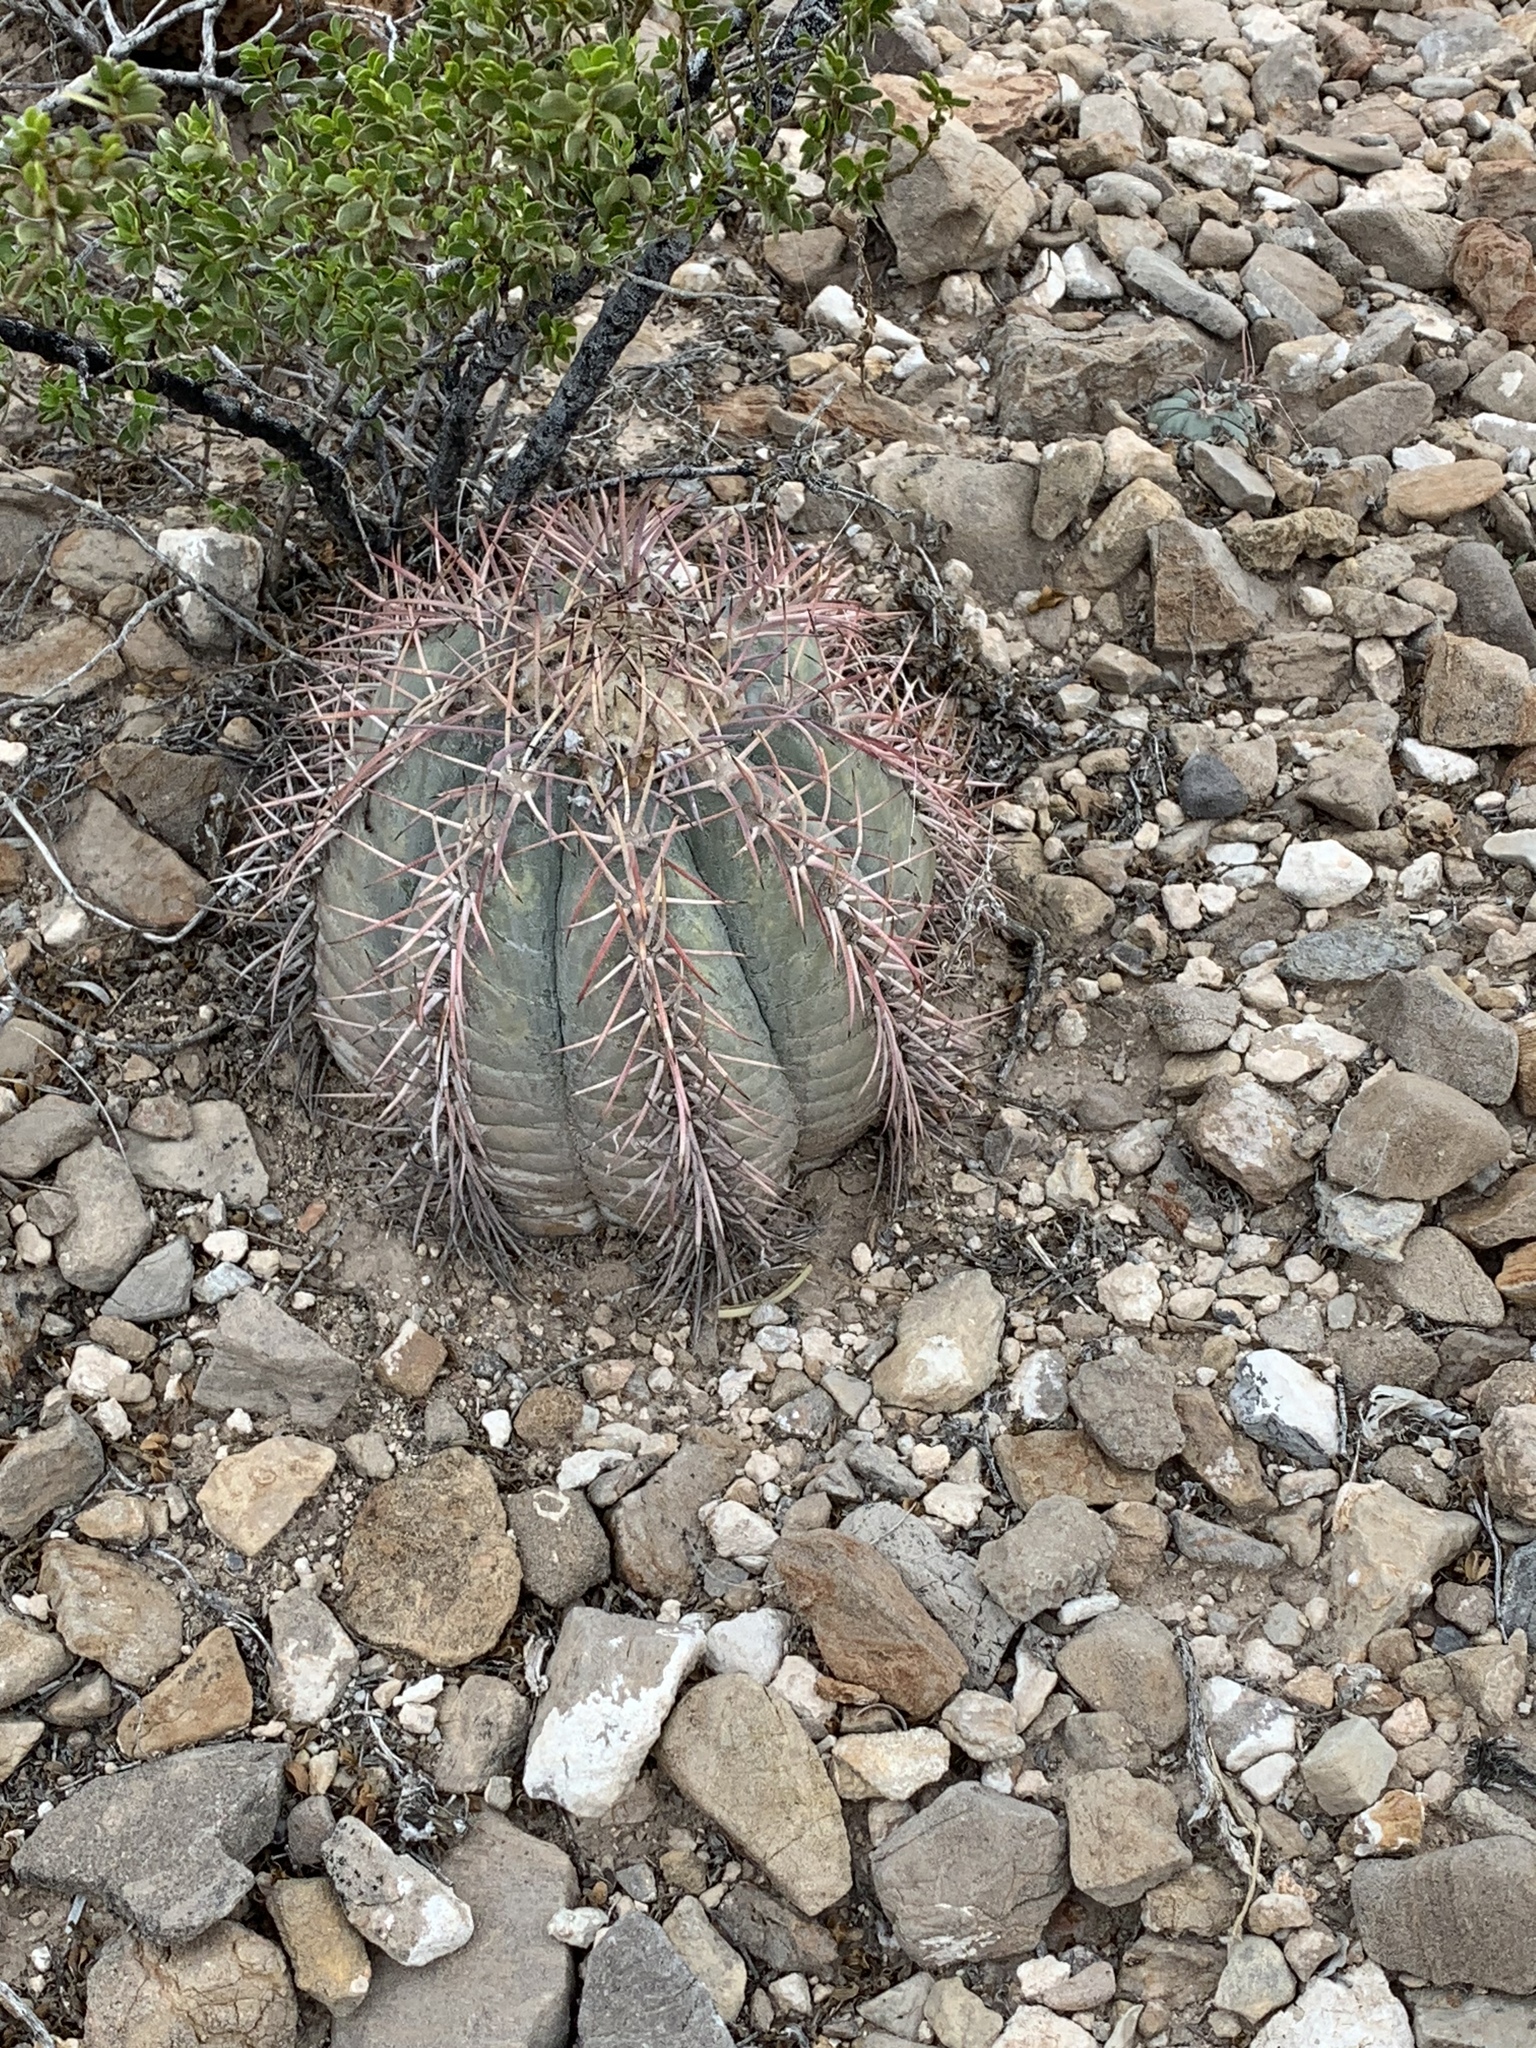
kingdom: Plantae
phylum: Tracheophyta
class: Magnoliopsida
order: Caryophyllales
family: Cactaceae
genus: Echinocactus
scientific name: Echinocactus horizonthalonius
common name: Devilshead
